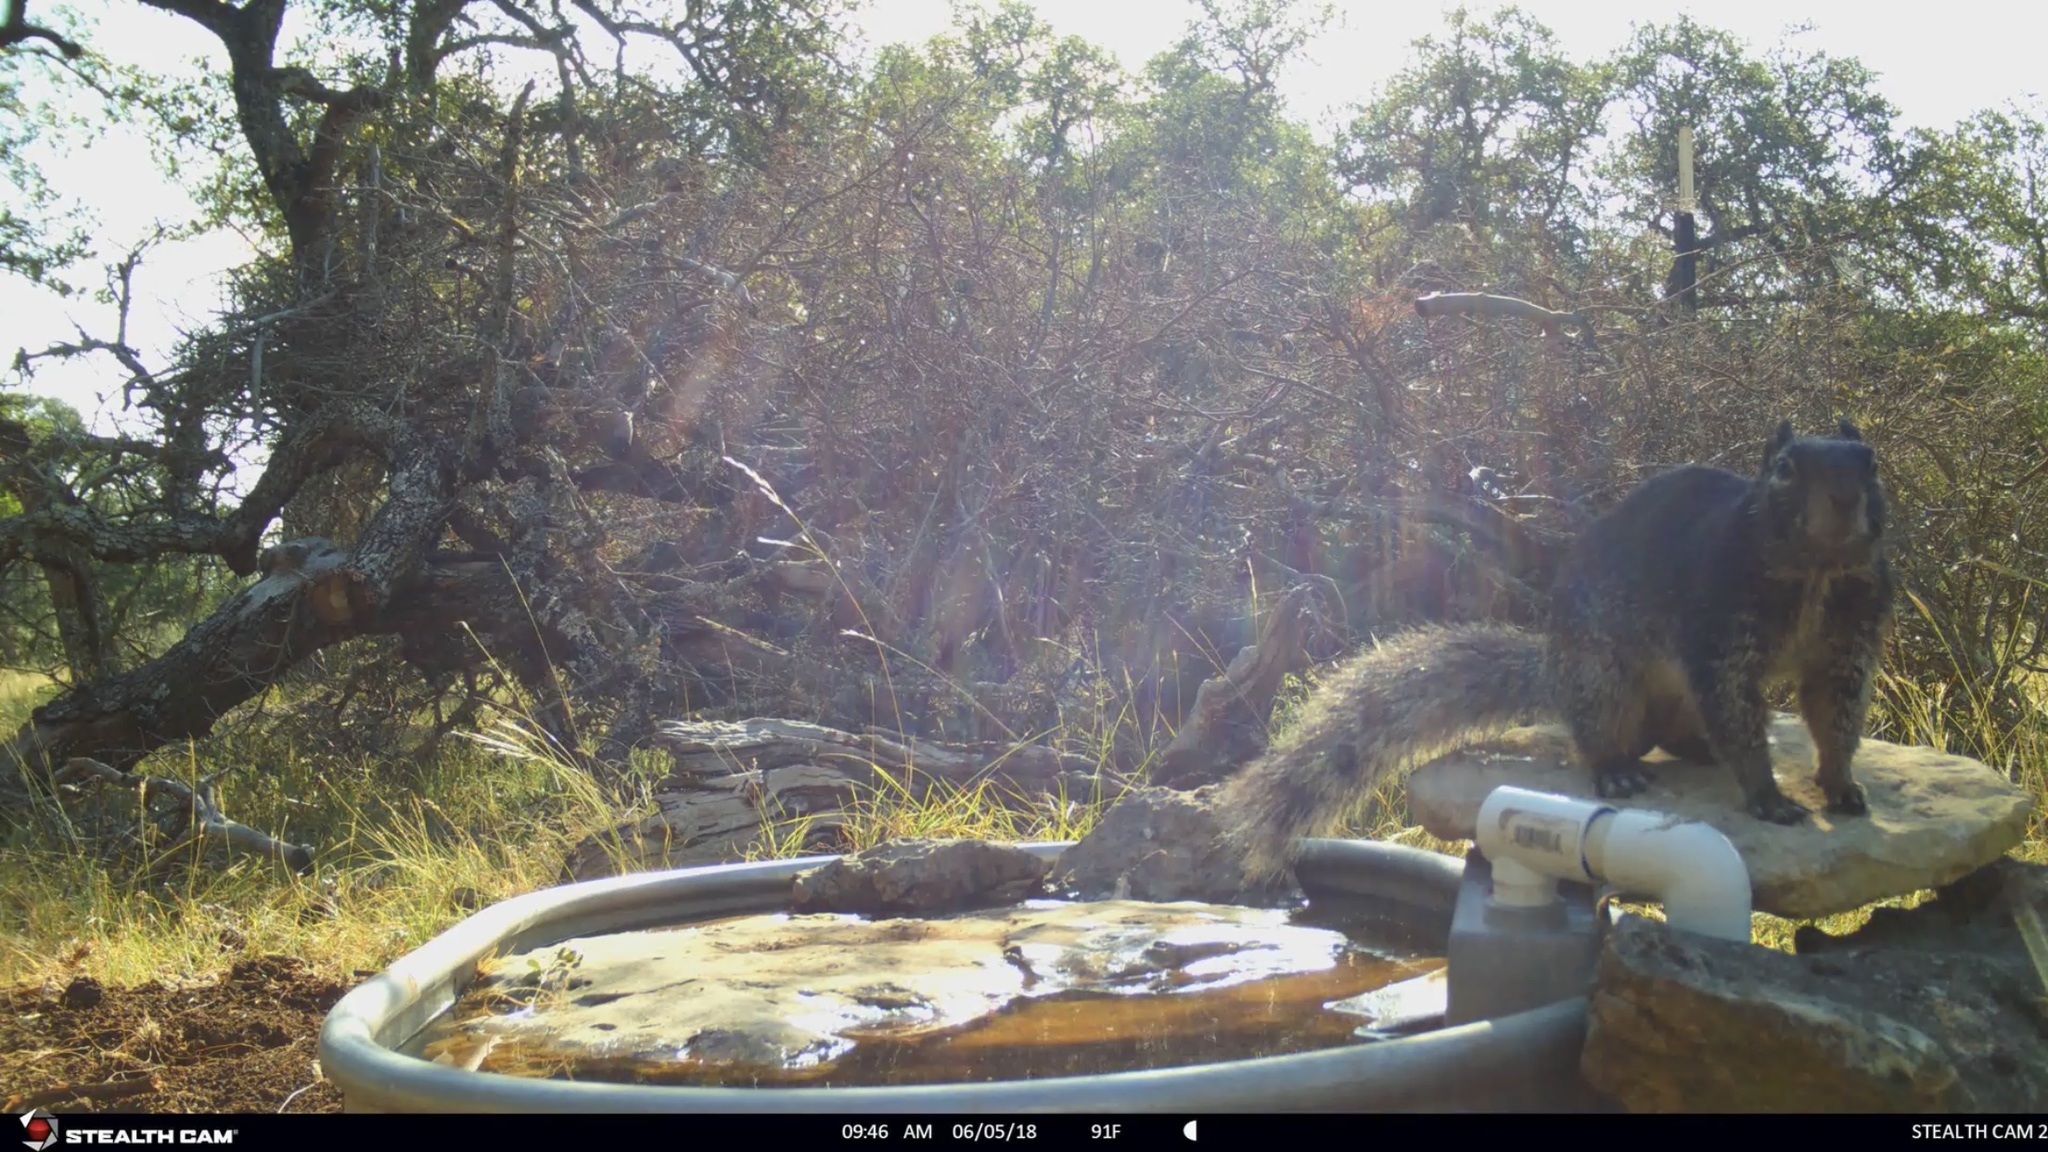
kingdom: Animalia
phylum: Chordata
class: Mammalia
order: Rodentia
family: Sciuridae
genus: Otospermophilus
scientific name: Otospermophilus variegatus
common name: Rock squirrel
